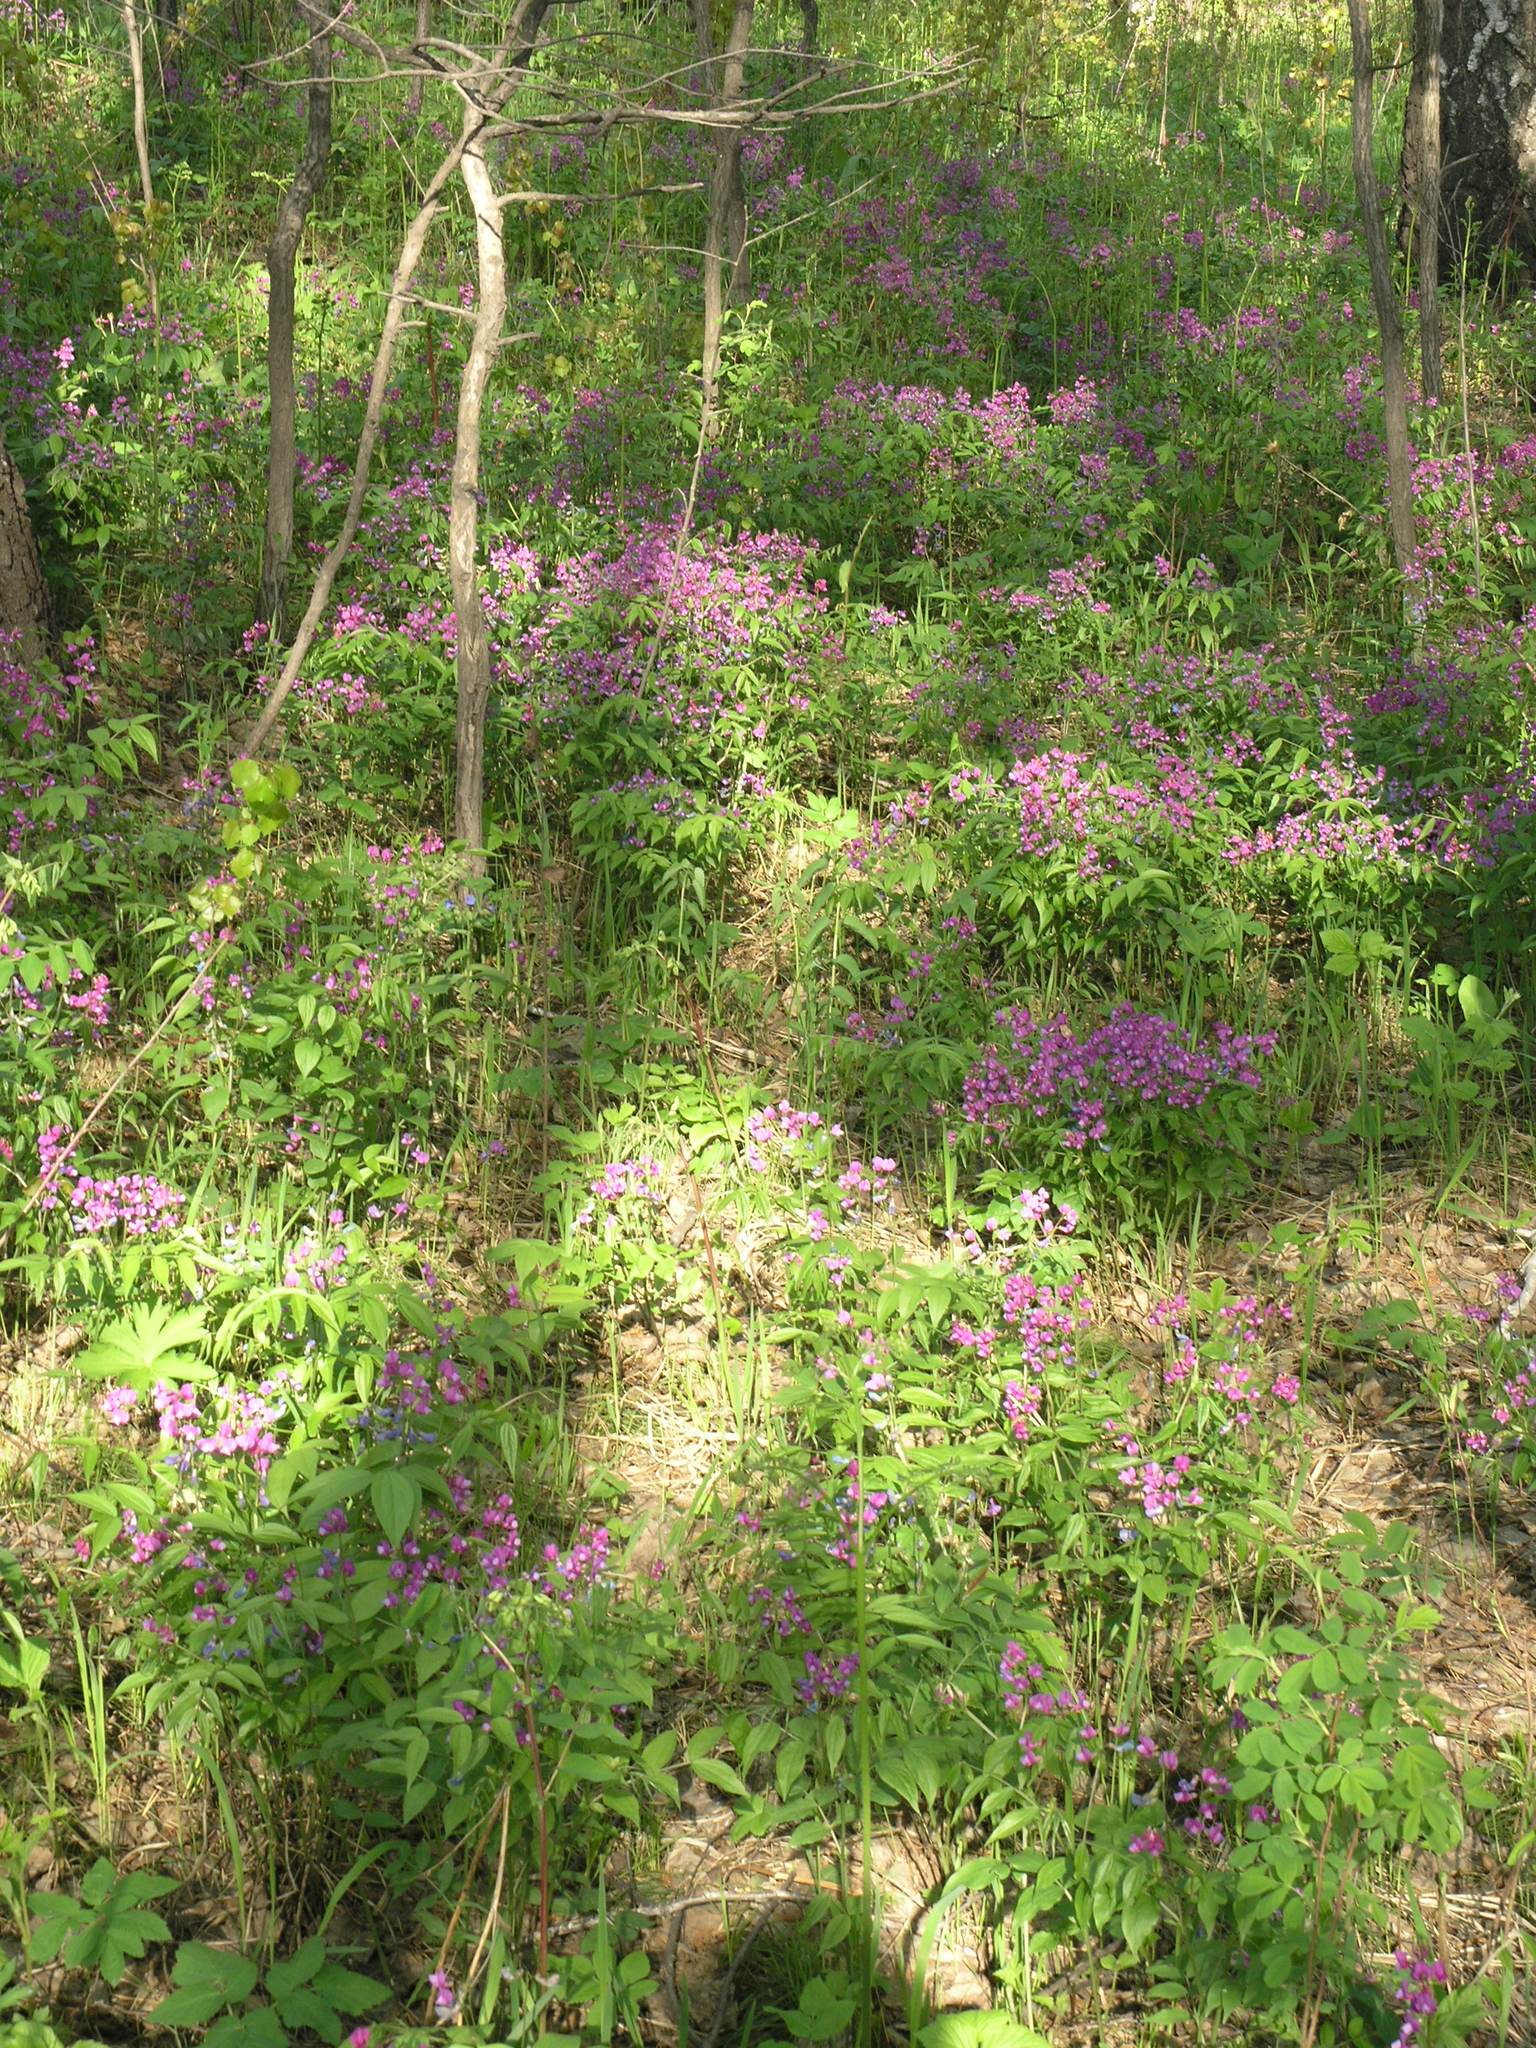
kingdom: Plantae
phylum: Tracheophyta
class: Magnoliopsida
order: Fabales
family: Fabaceae
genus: Lathyrus
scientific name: Lathyrus vernus
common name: Spring pea
